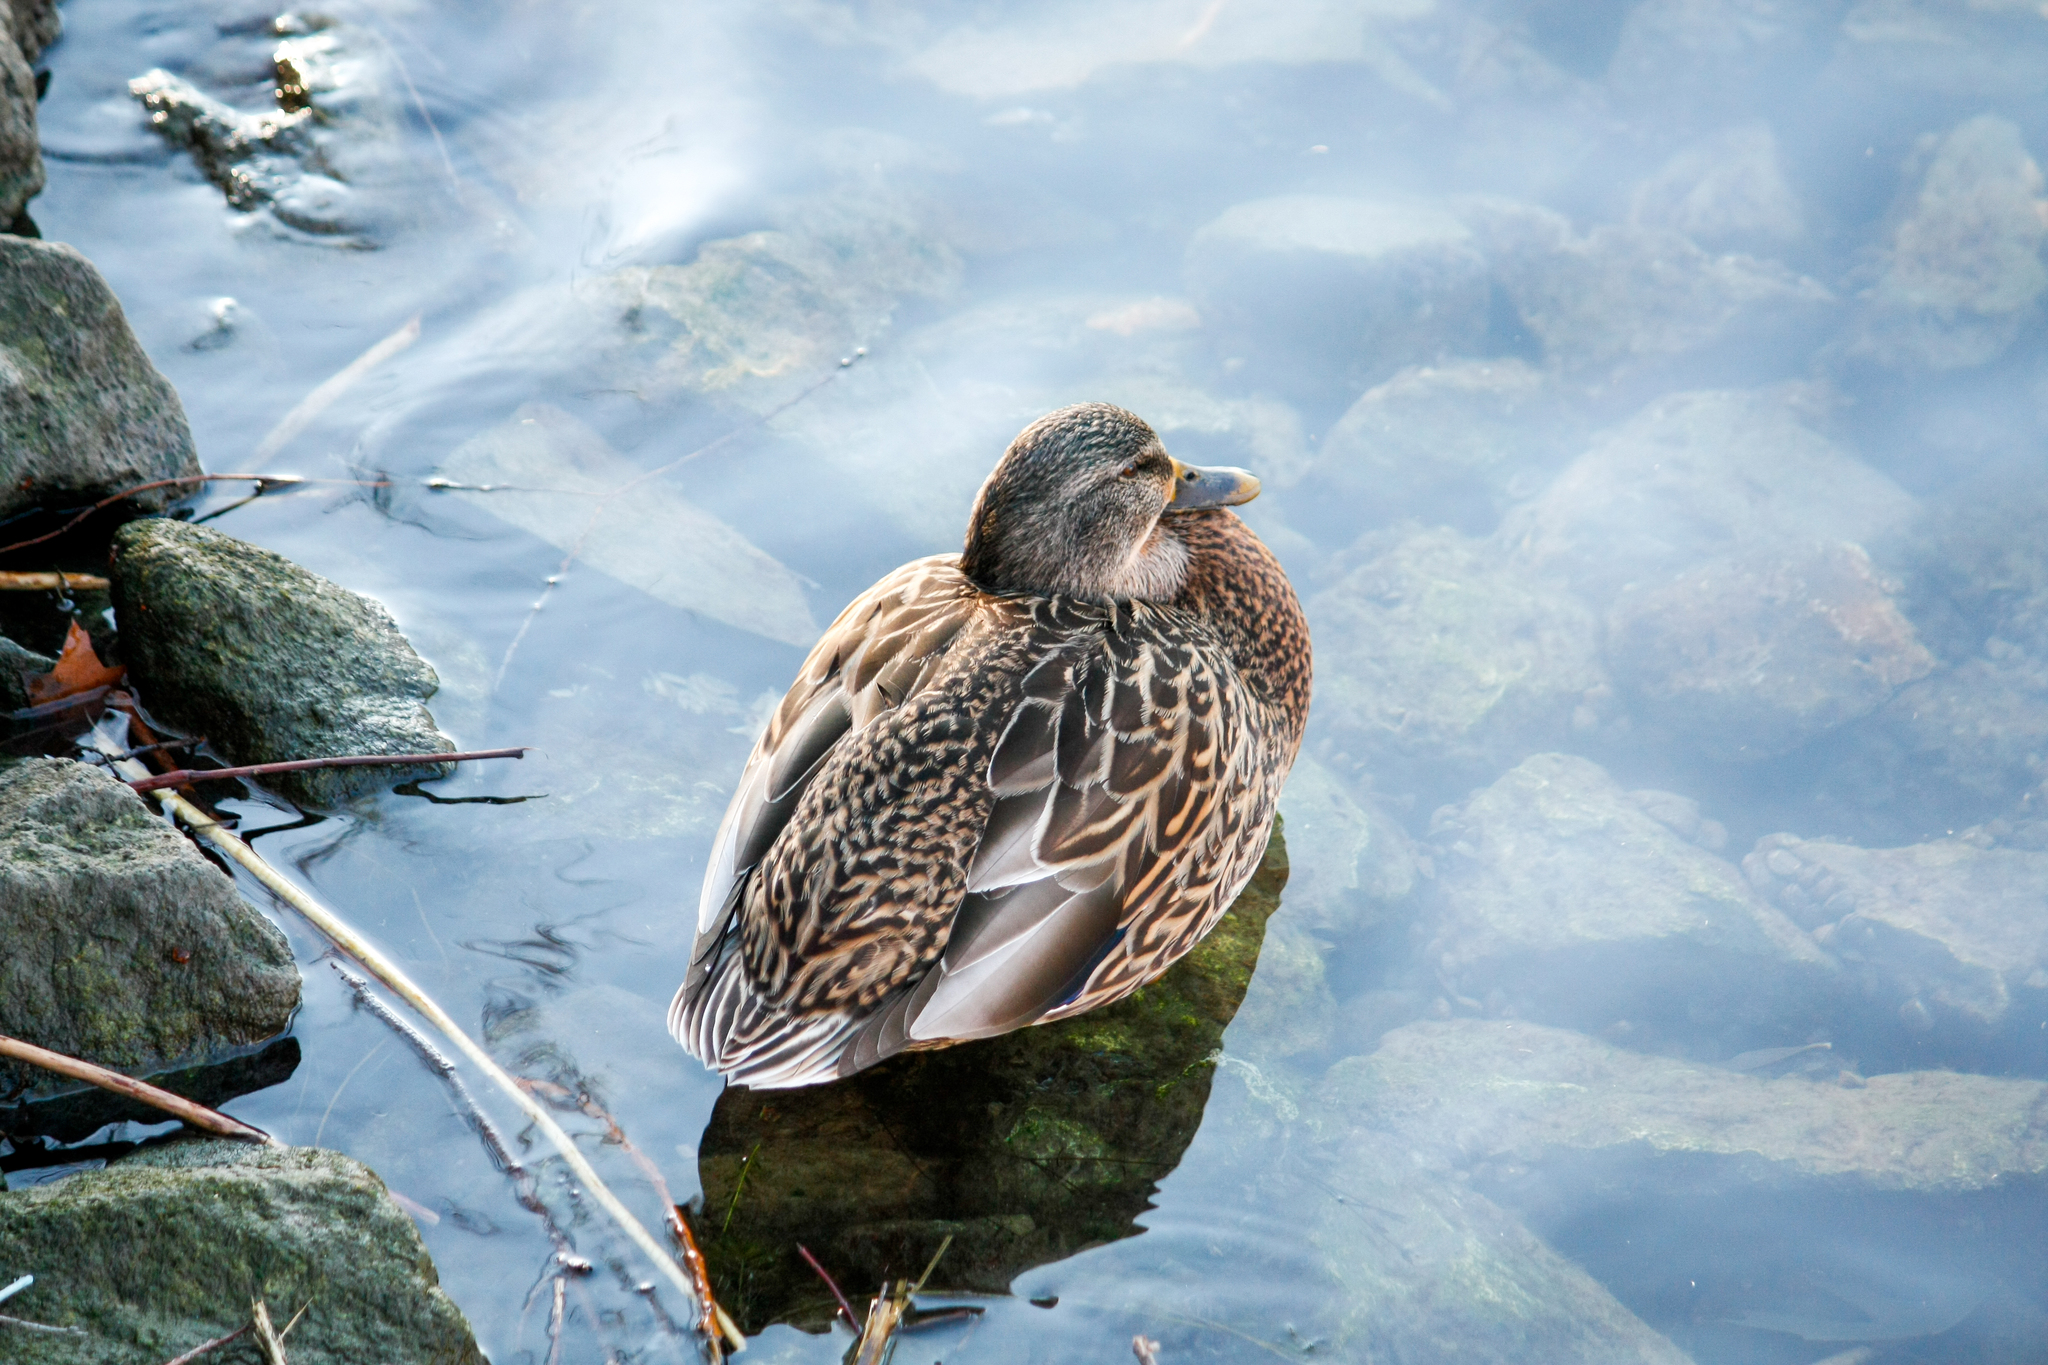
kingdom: Animalia
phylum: Chordata
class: Aves
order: Anseriformes
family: Anatidae
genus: Anas
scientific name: Anas platyrhynchos
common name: Mallard
